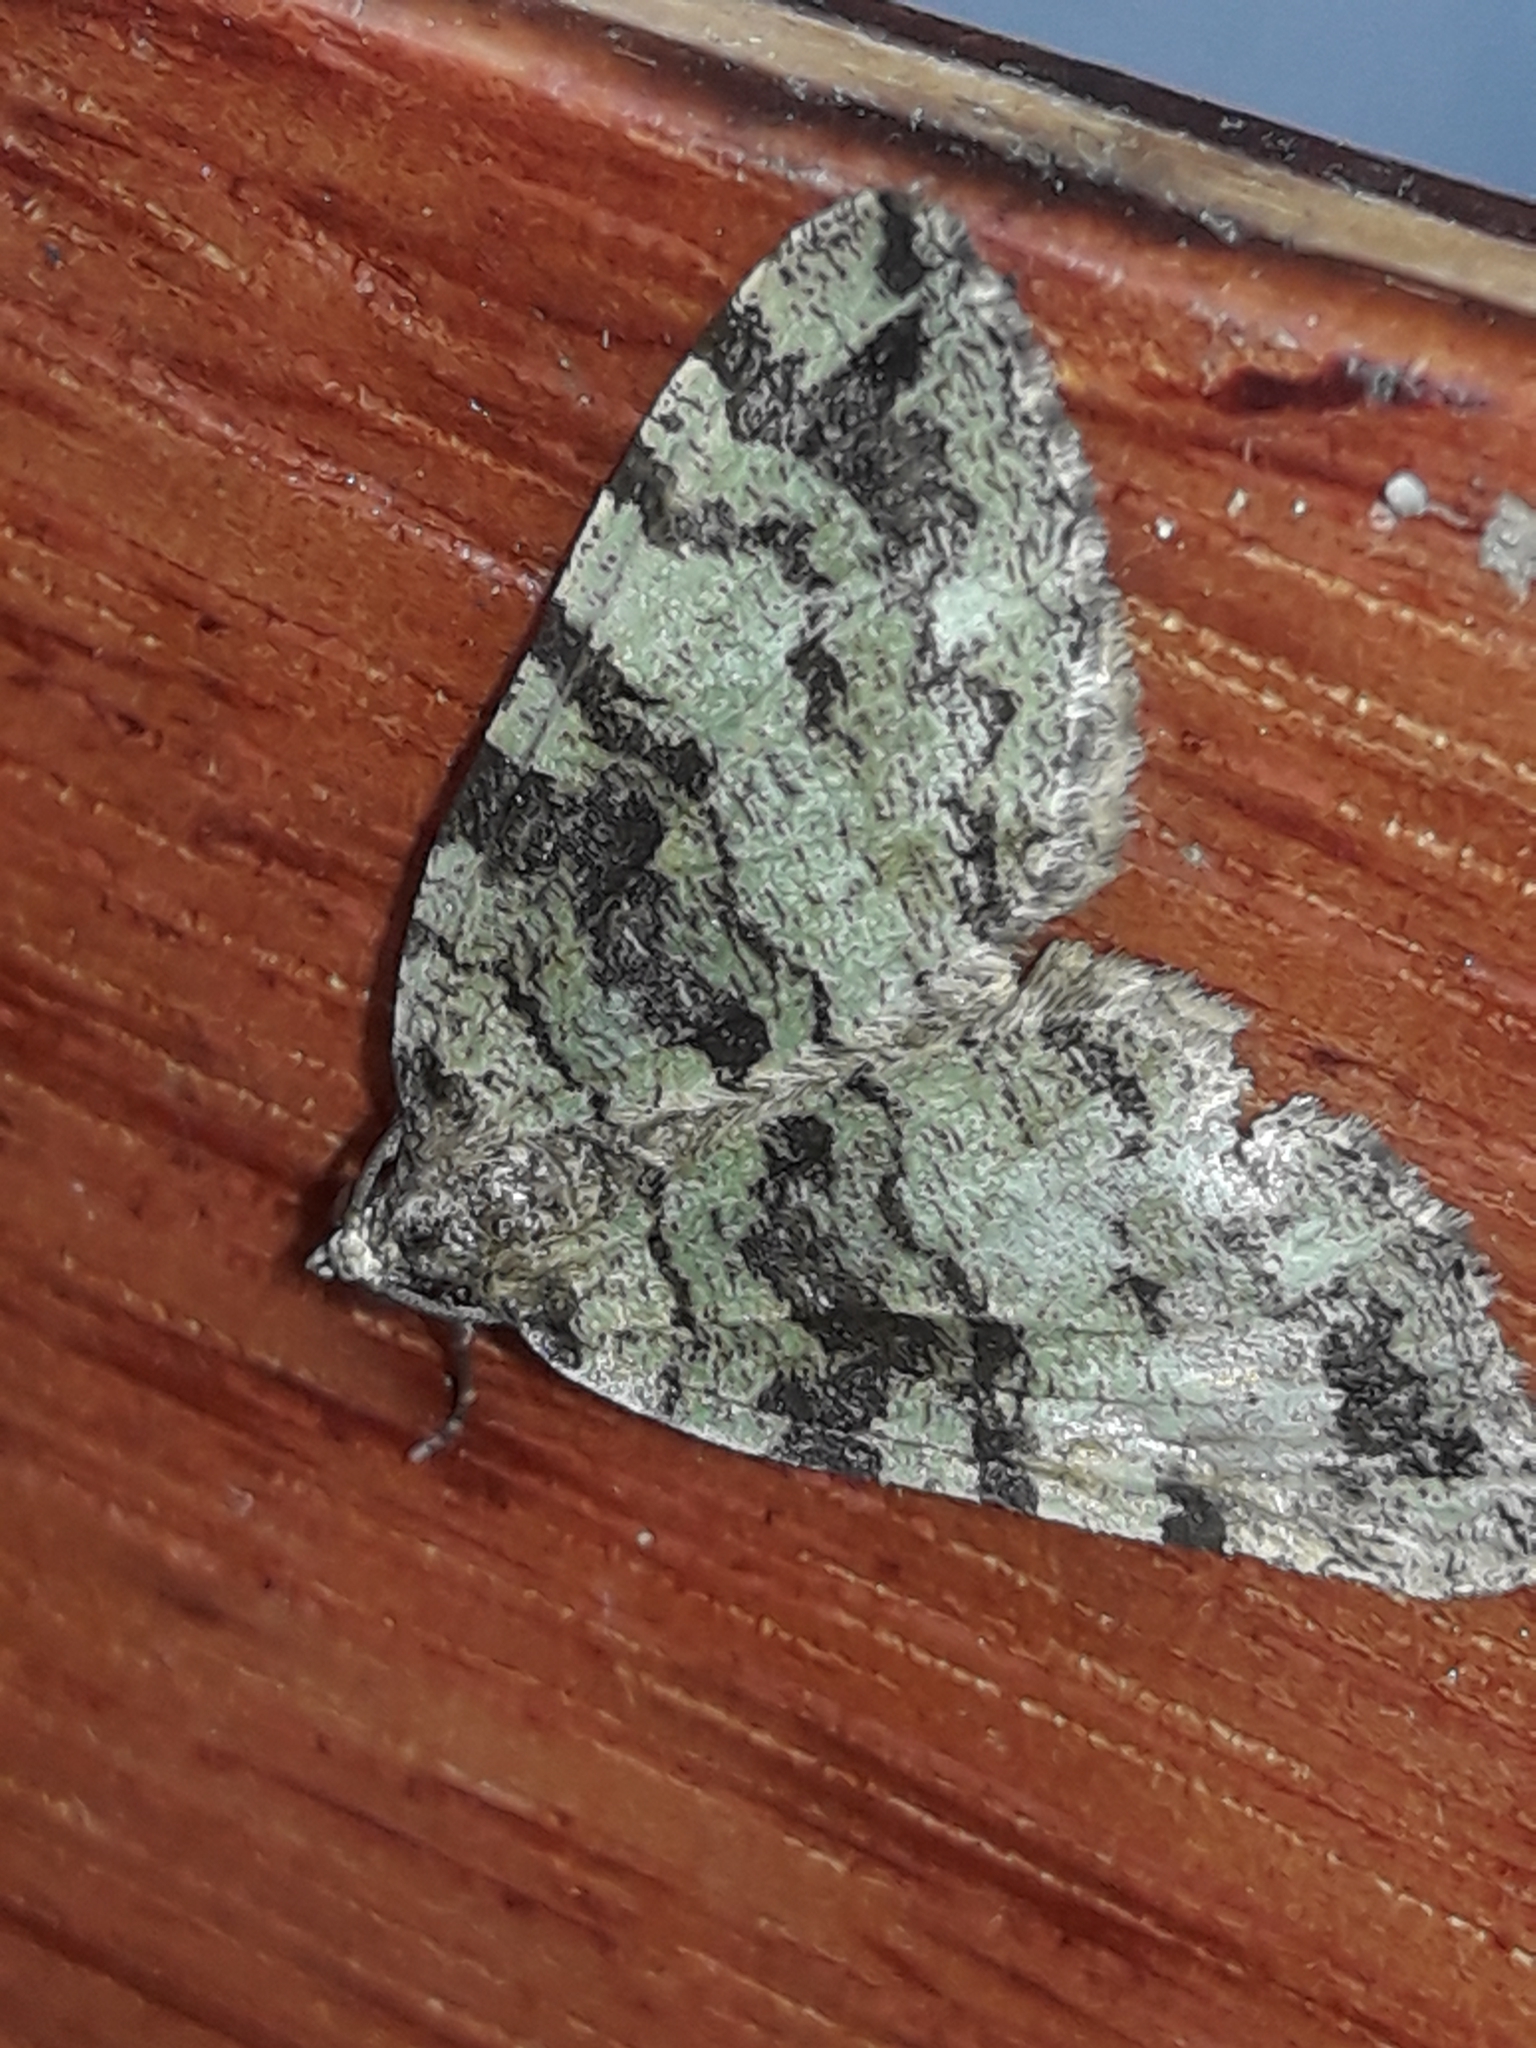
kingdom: Animalia
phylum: Arthropoda
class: Insecta
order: Lepidoptera
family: Geometridae
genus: Hydriomena
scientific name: Hydriomena furcata
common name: July highflyer
